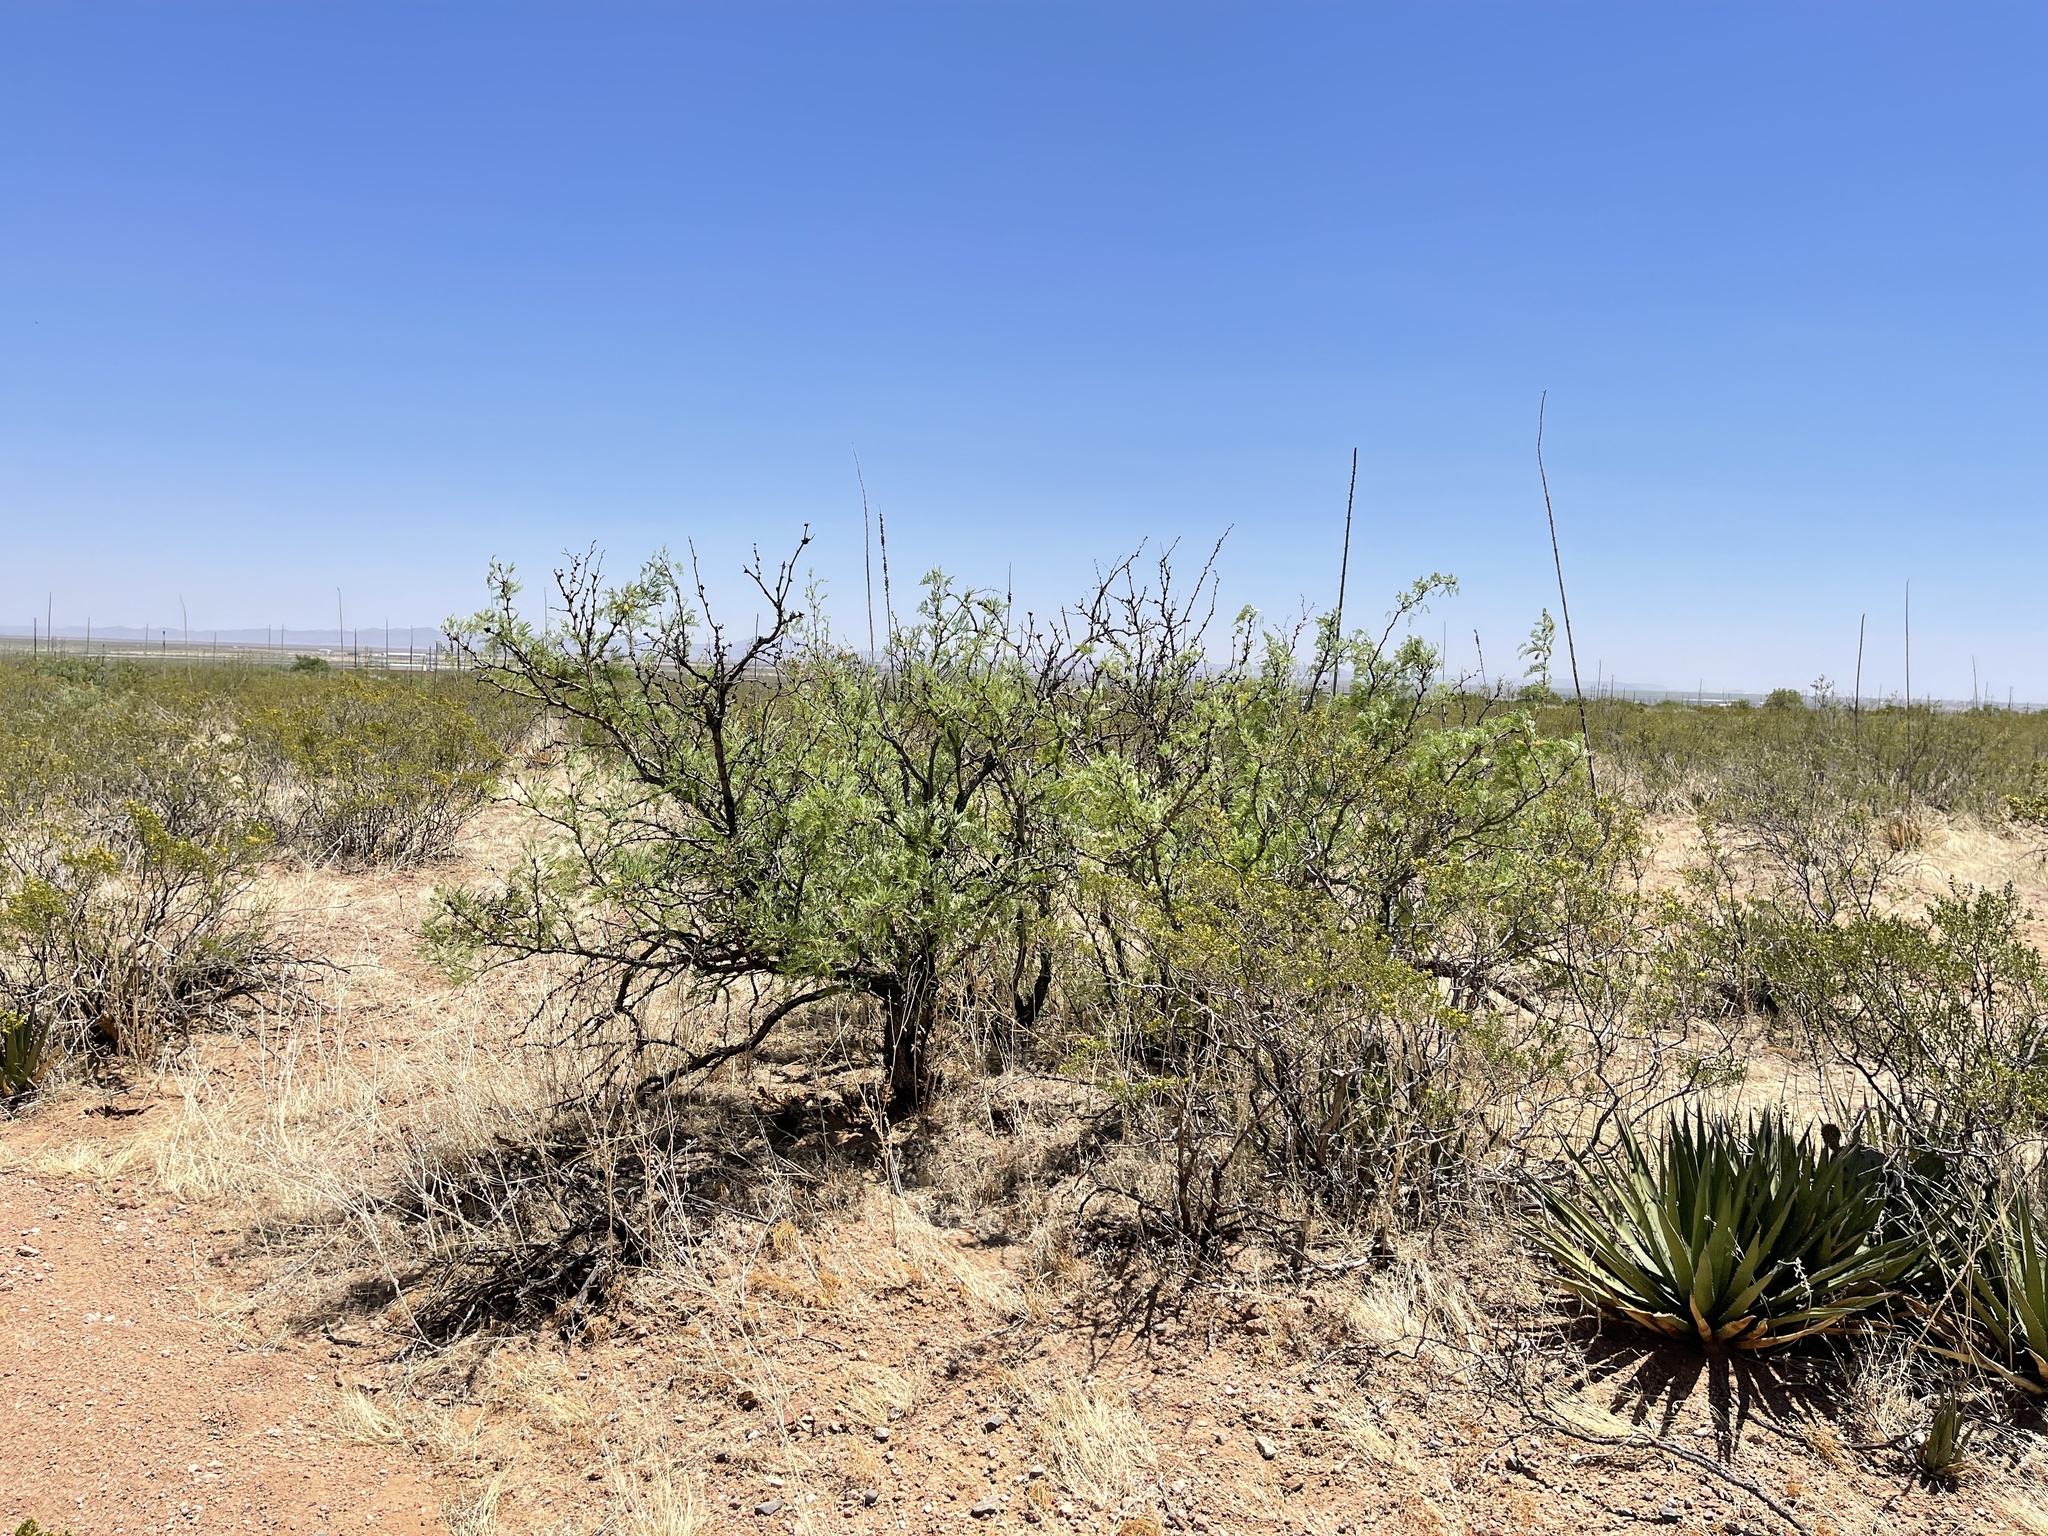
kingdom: Plantae
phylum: Tracheophyta
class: Magnoliopsida
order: Fabales
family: Fabaceae
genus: Prosopis
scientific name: Prosopis pubescens
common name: Screw-bean
